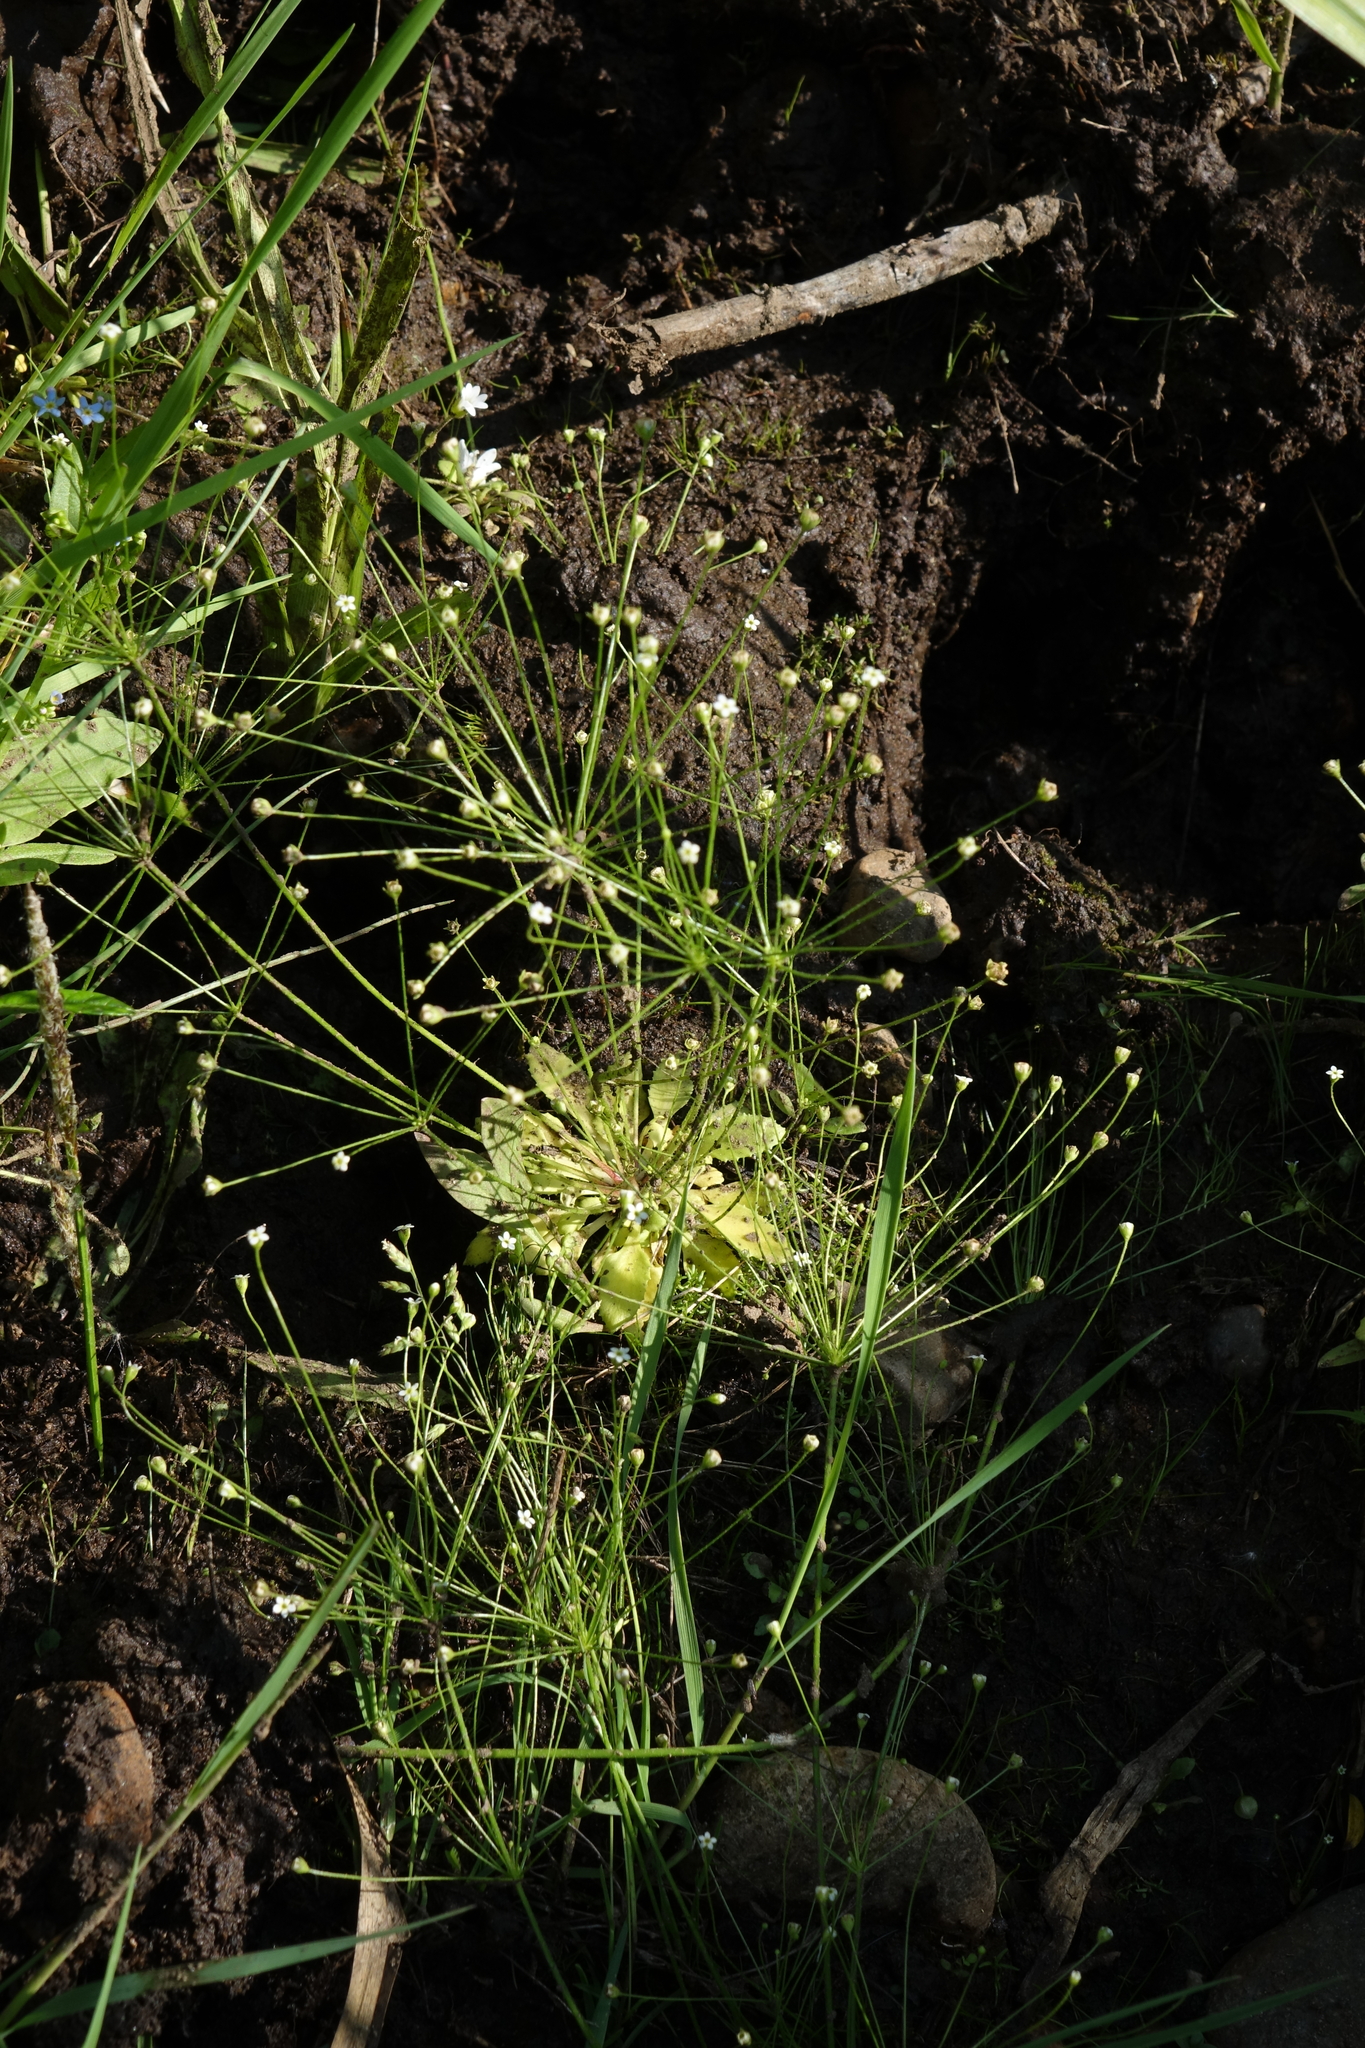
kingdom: Plantae
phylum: Tracheophyta
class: Magnoliopsida
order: Ericales
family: Primulaceae
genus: Androsace
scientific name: Androsace filiformis
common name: Filiform rock jasmine
